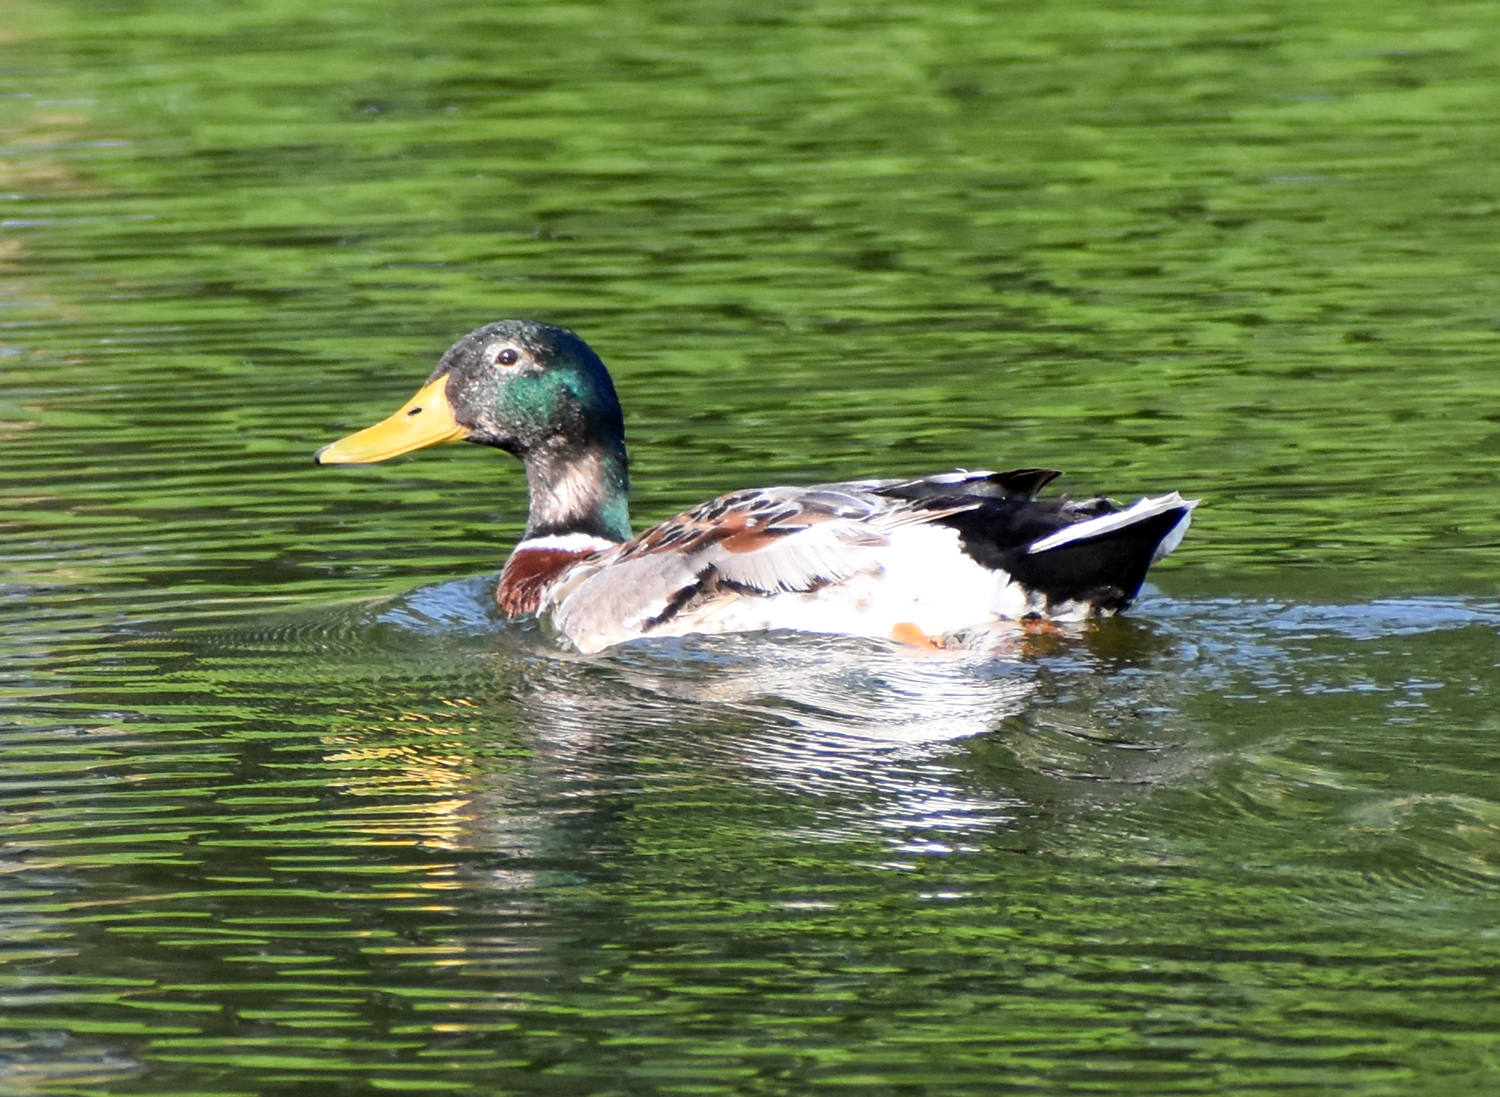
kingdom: Animalia
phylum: Chordata
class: Aves
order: Anseriformes
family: Anatidae
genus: Anas
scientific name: Anas platyrhynchos
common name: Mallard
